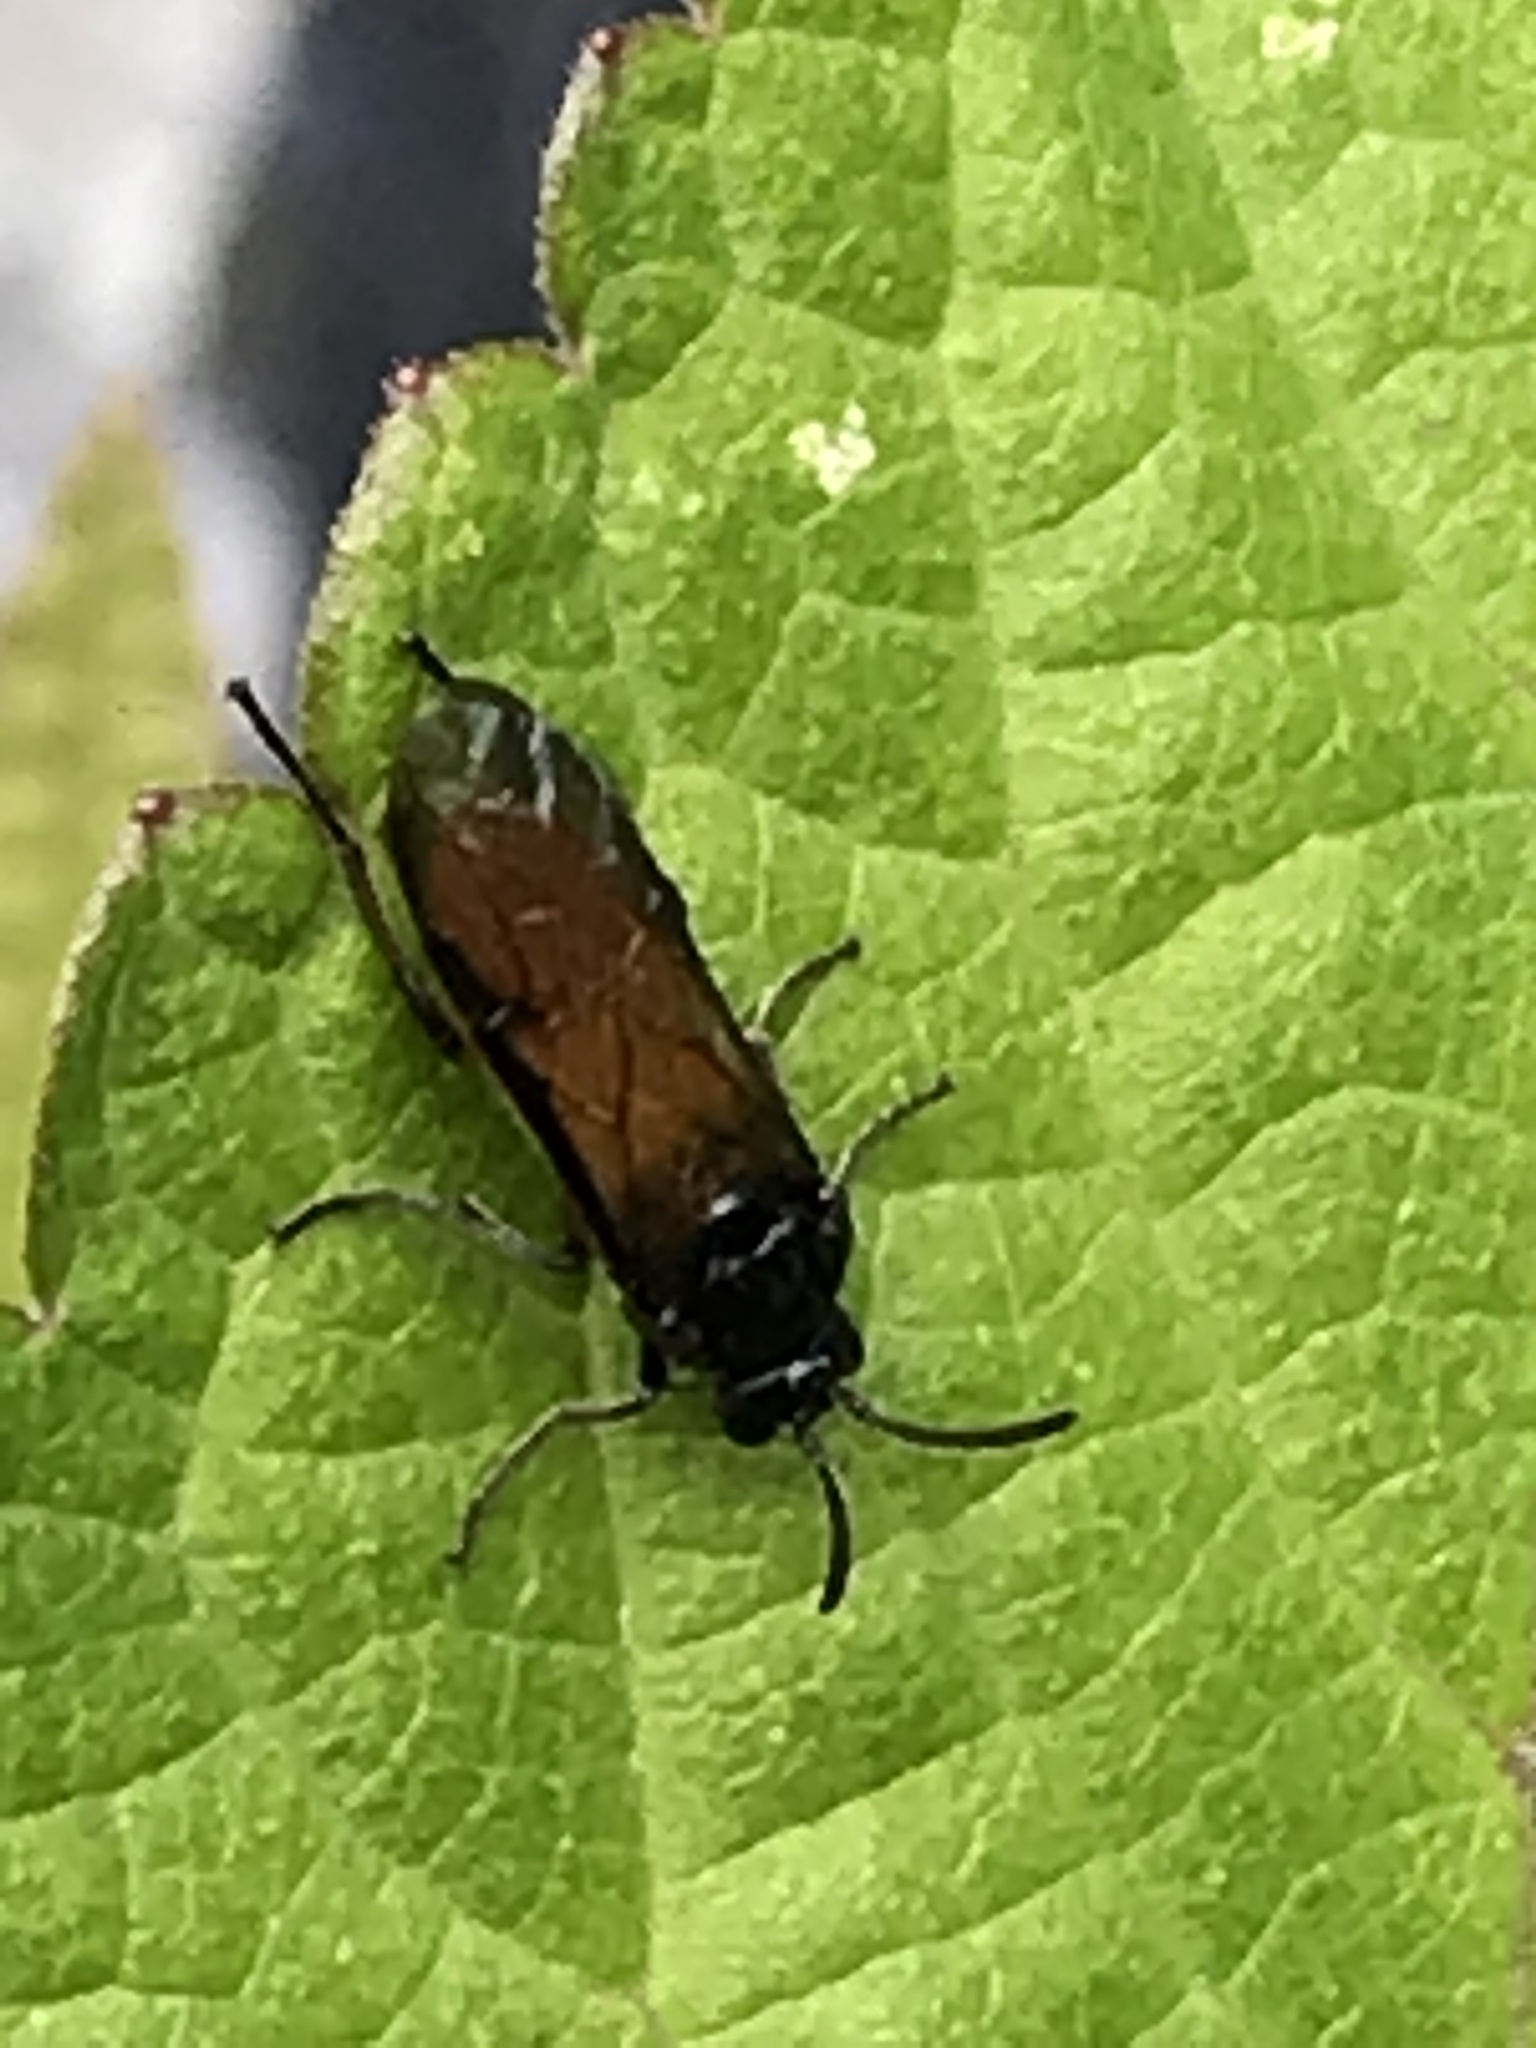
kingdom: Animalia
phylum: Arthropoda
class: Insecta
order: Hymenoptera
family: Argidae
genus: Arge
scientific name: Arge pagana
